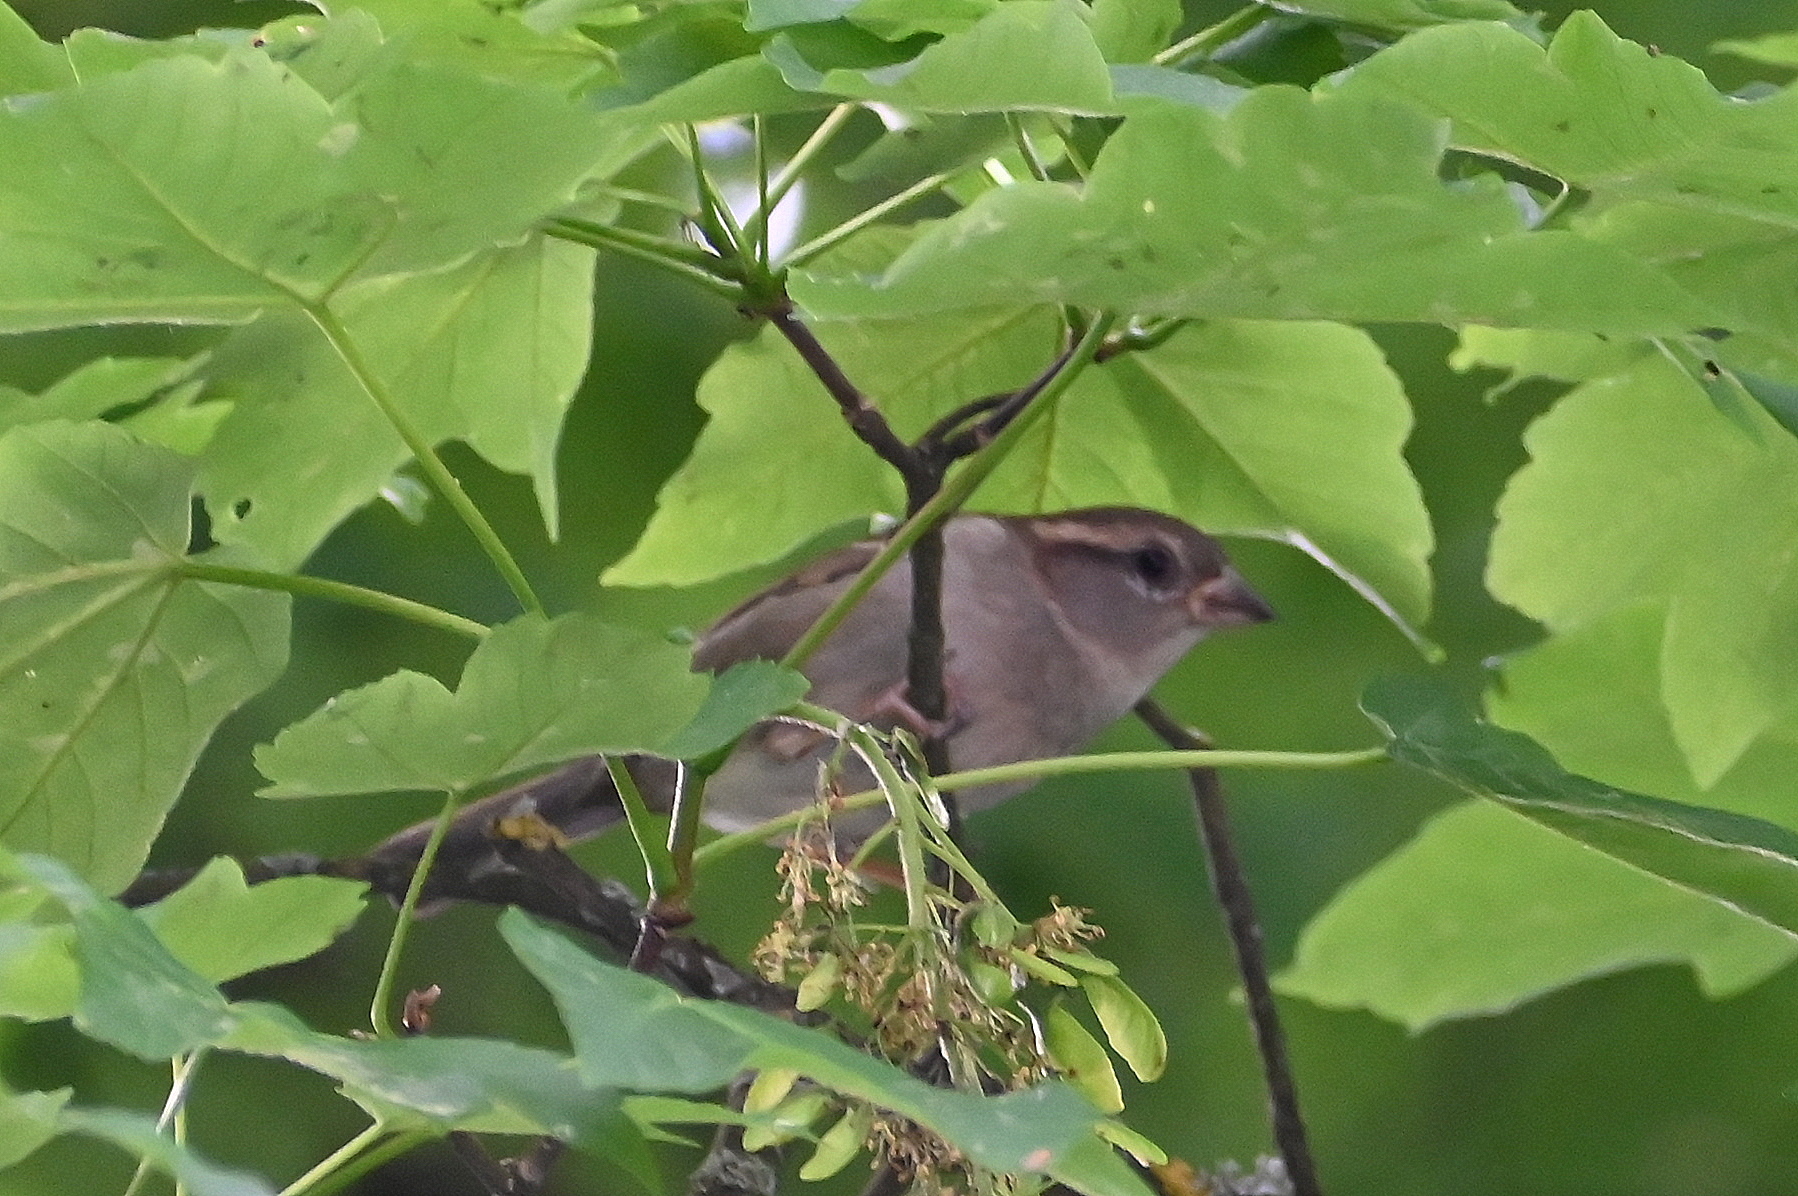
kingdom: Animalia
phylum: Chordata
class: Aves
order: Passeriformes
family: Passeridae
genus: Passer
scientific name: Passer domesticus
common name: House sparrow
